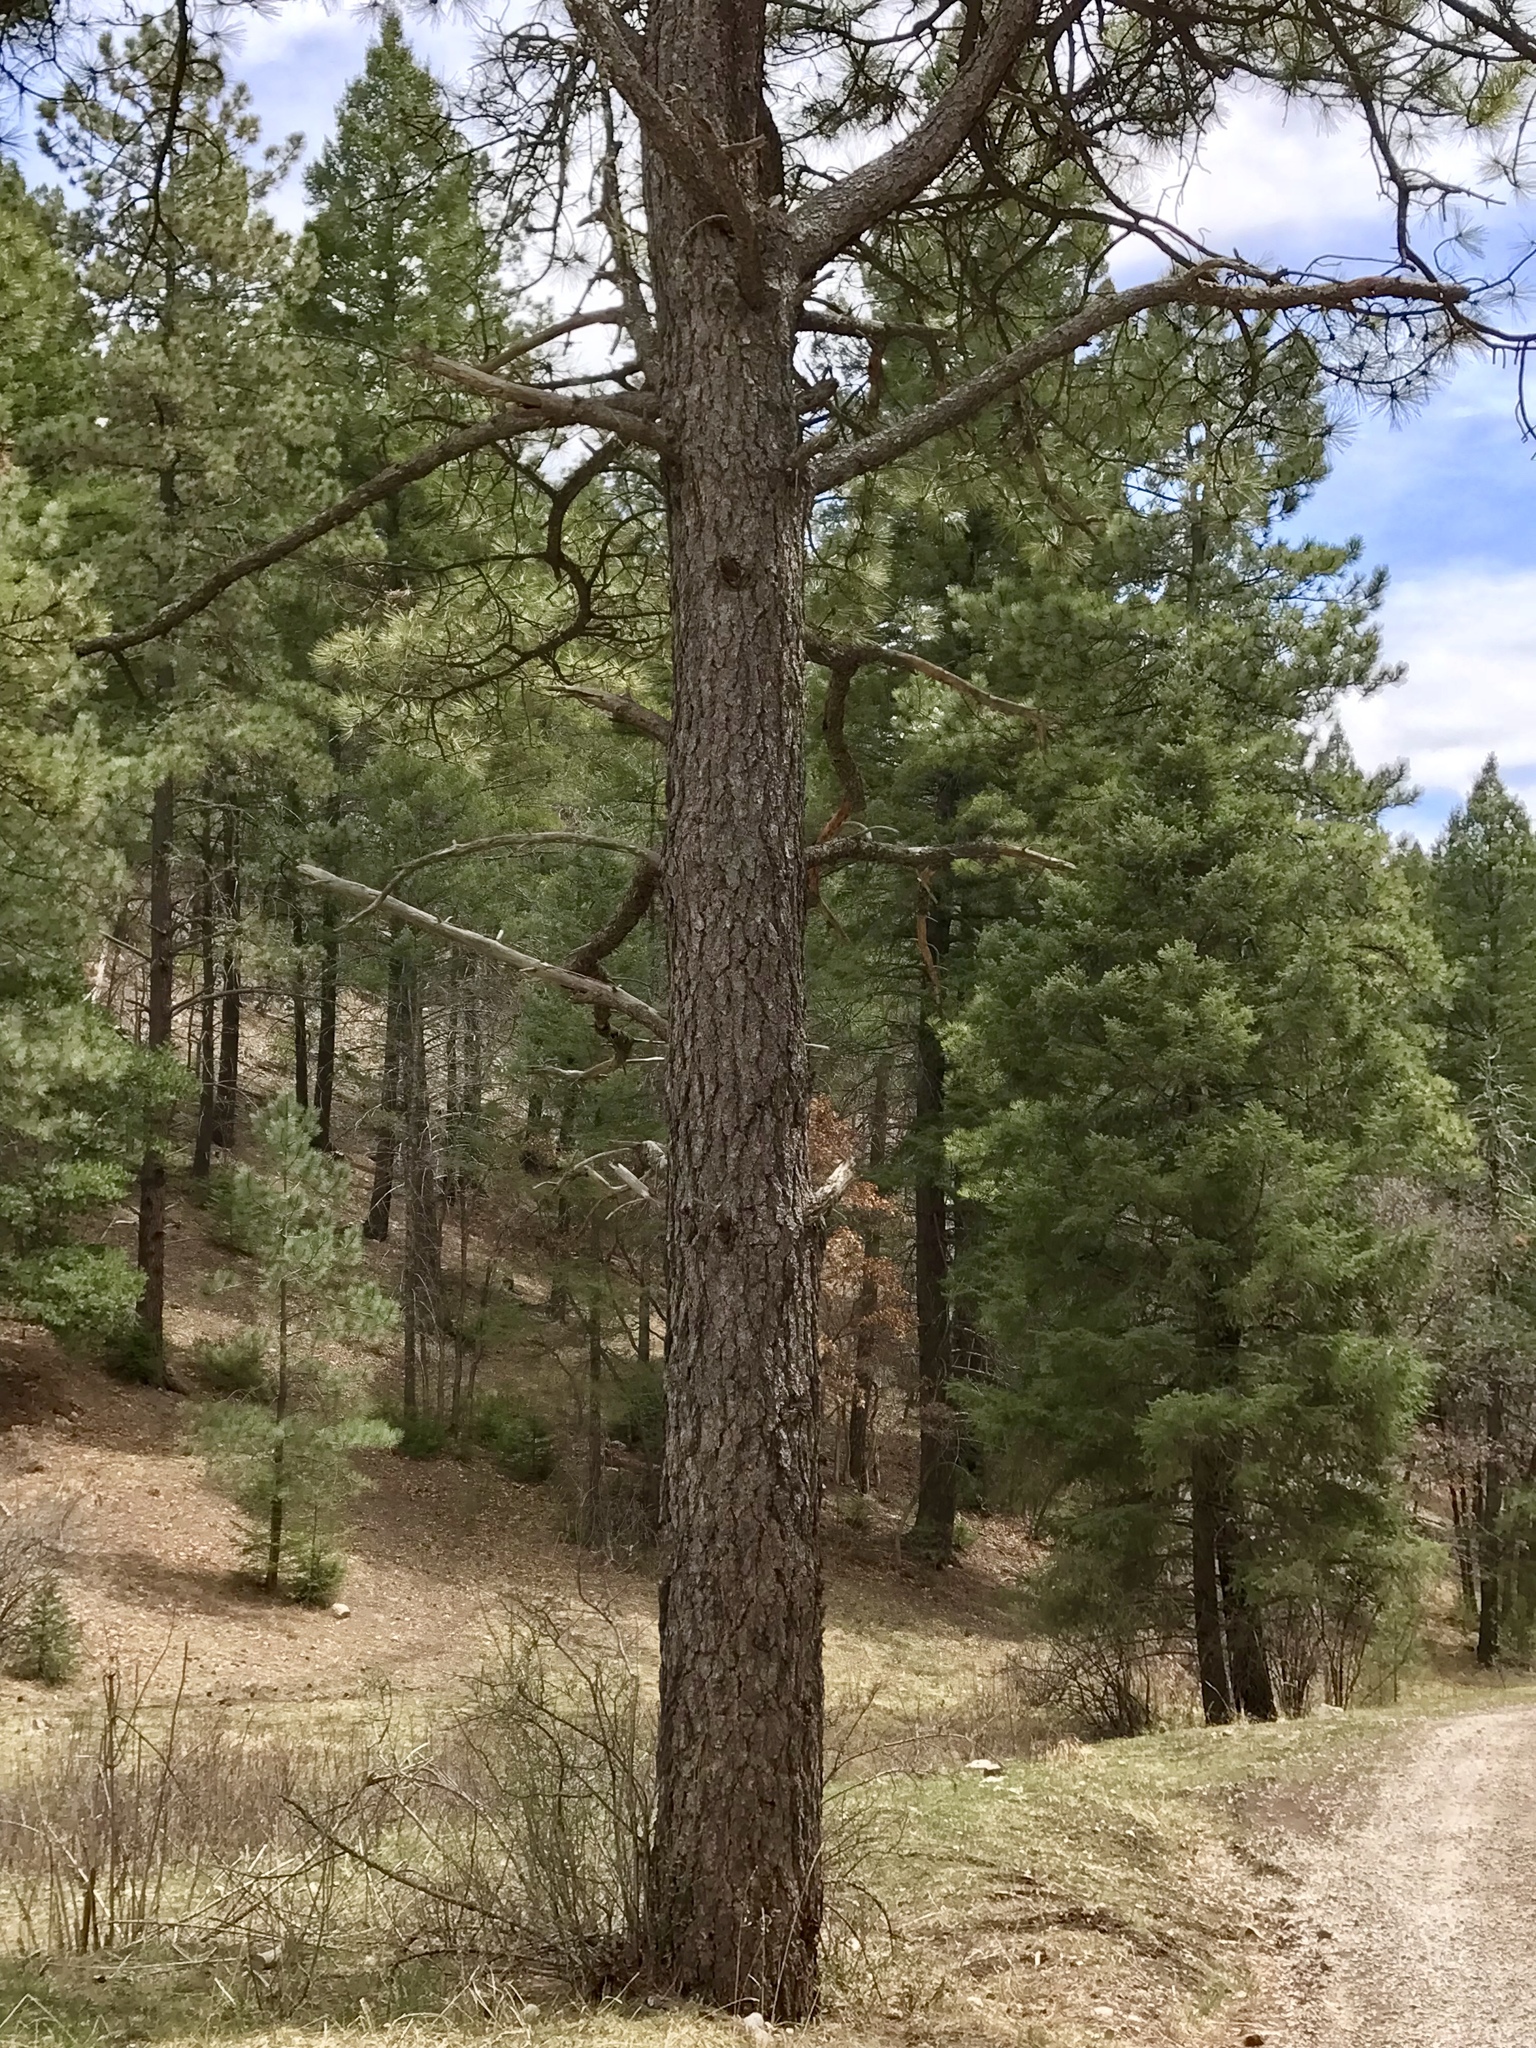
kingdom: Plantae
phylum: Tracheophyta
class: Pinopsida
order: Pinales
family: Pinaceae
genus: Pinus
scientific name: Pinus ponderosa
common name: Western yellow-pine
